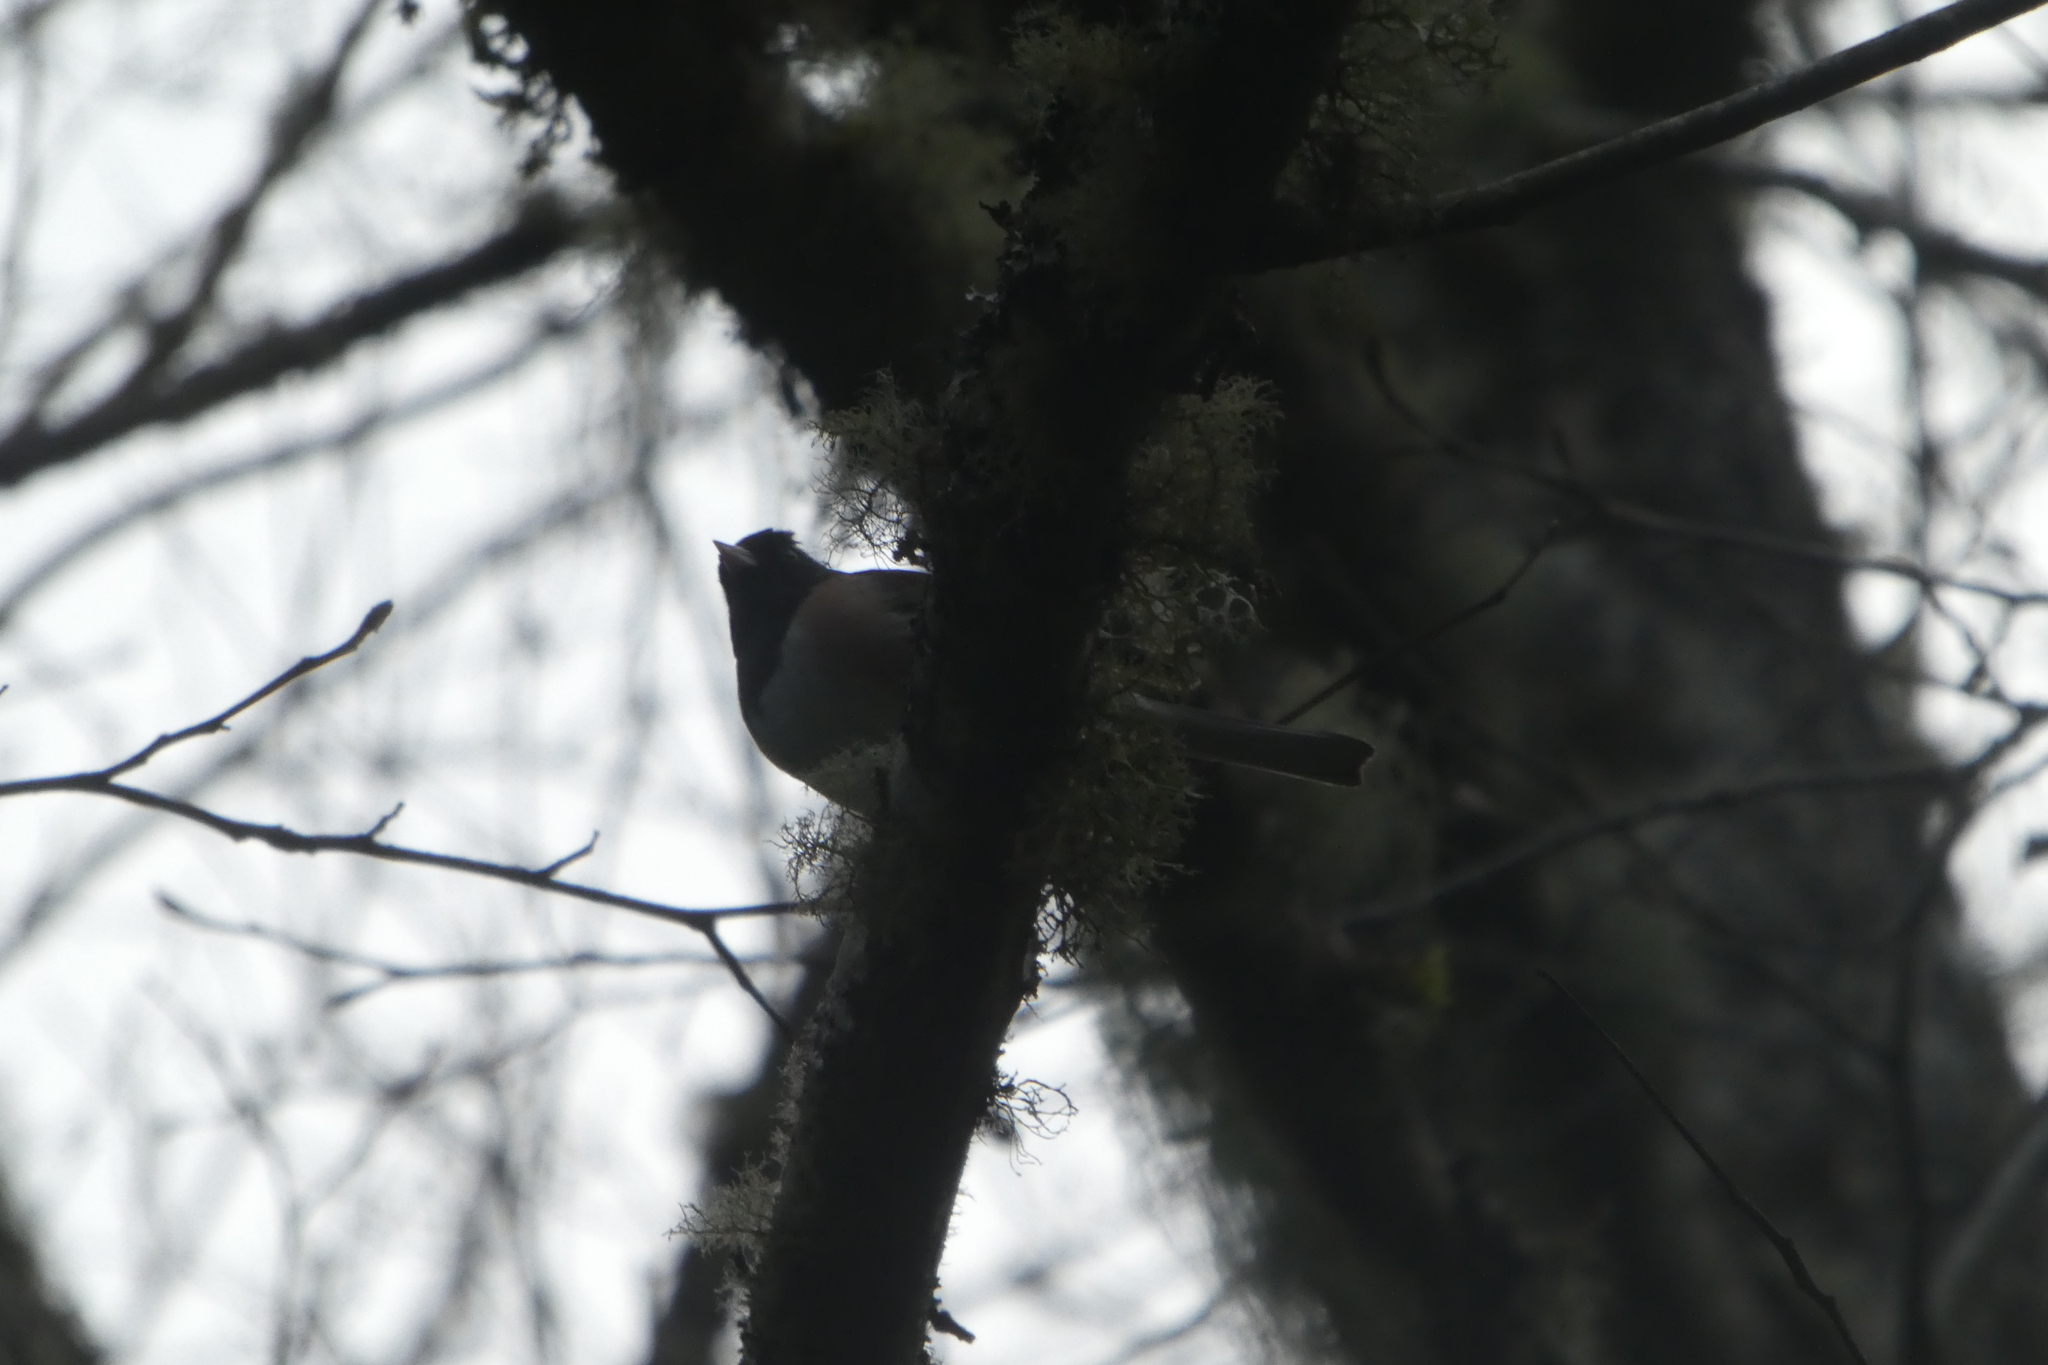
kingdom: Animalia
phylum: Chordata
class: Aves
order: Passeriformes
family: Passerellidae
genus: Junco
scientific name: Junco hyemalis
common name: Dark-eyed junco
